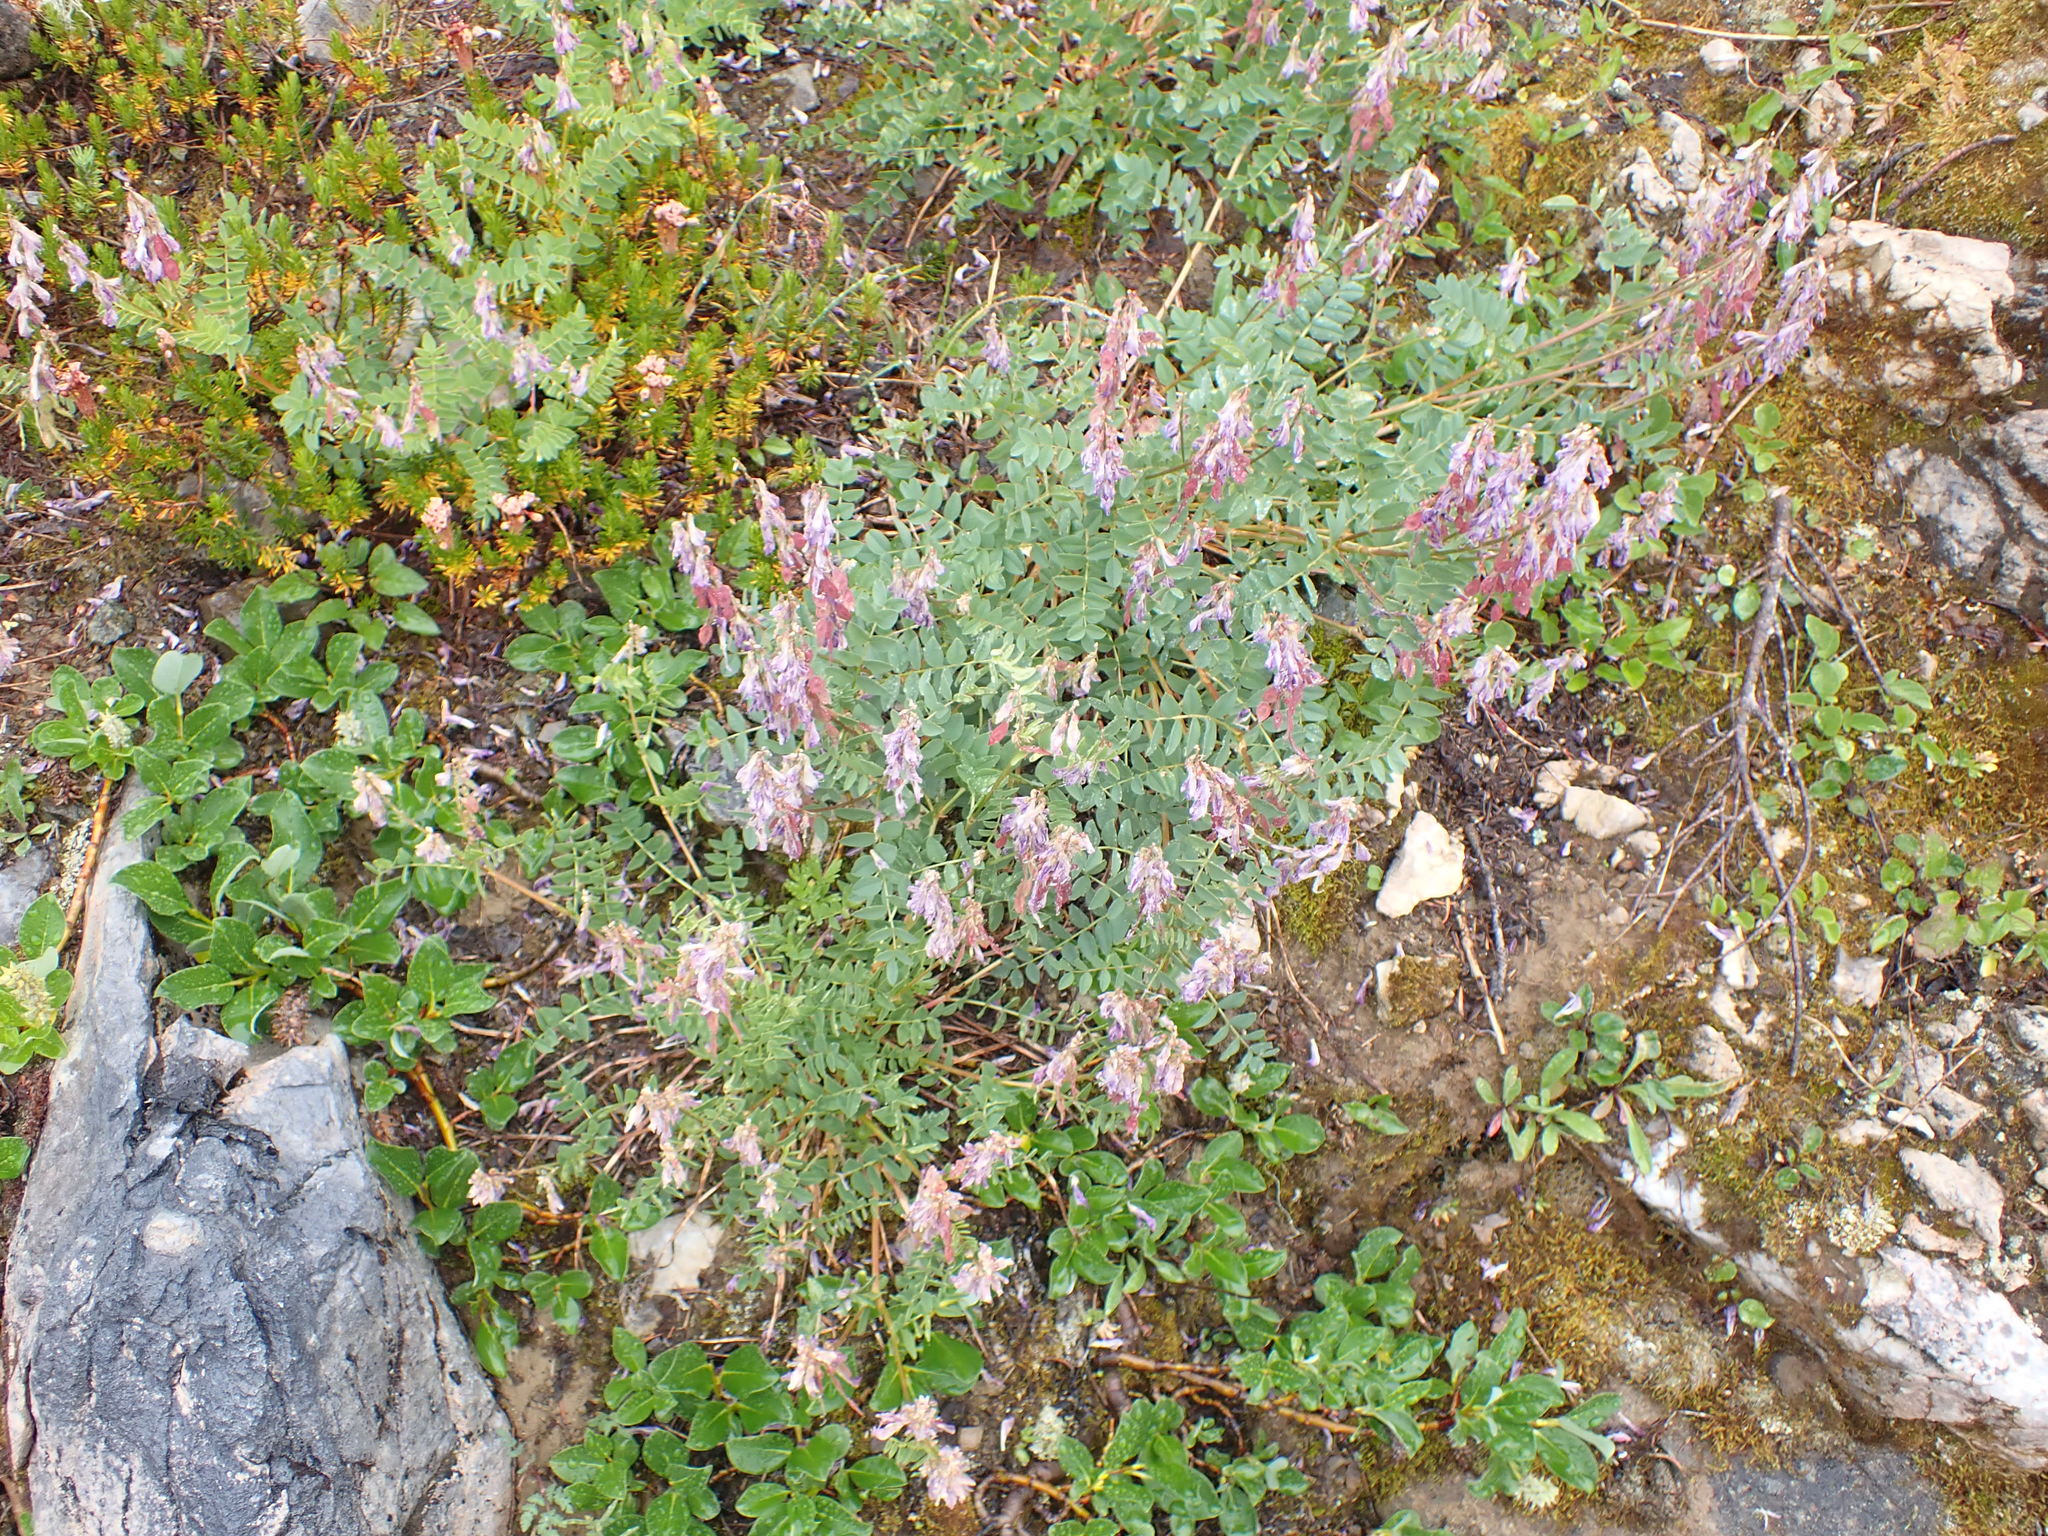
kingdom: Plantae
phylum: Tracheophyta
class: Magnoliopsida
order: Fabales
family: Fabaceae
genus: Hedysarum
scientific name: Hedysarum occidentale
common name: Western hedysarum
